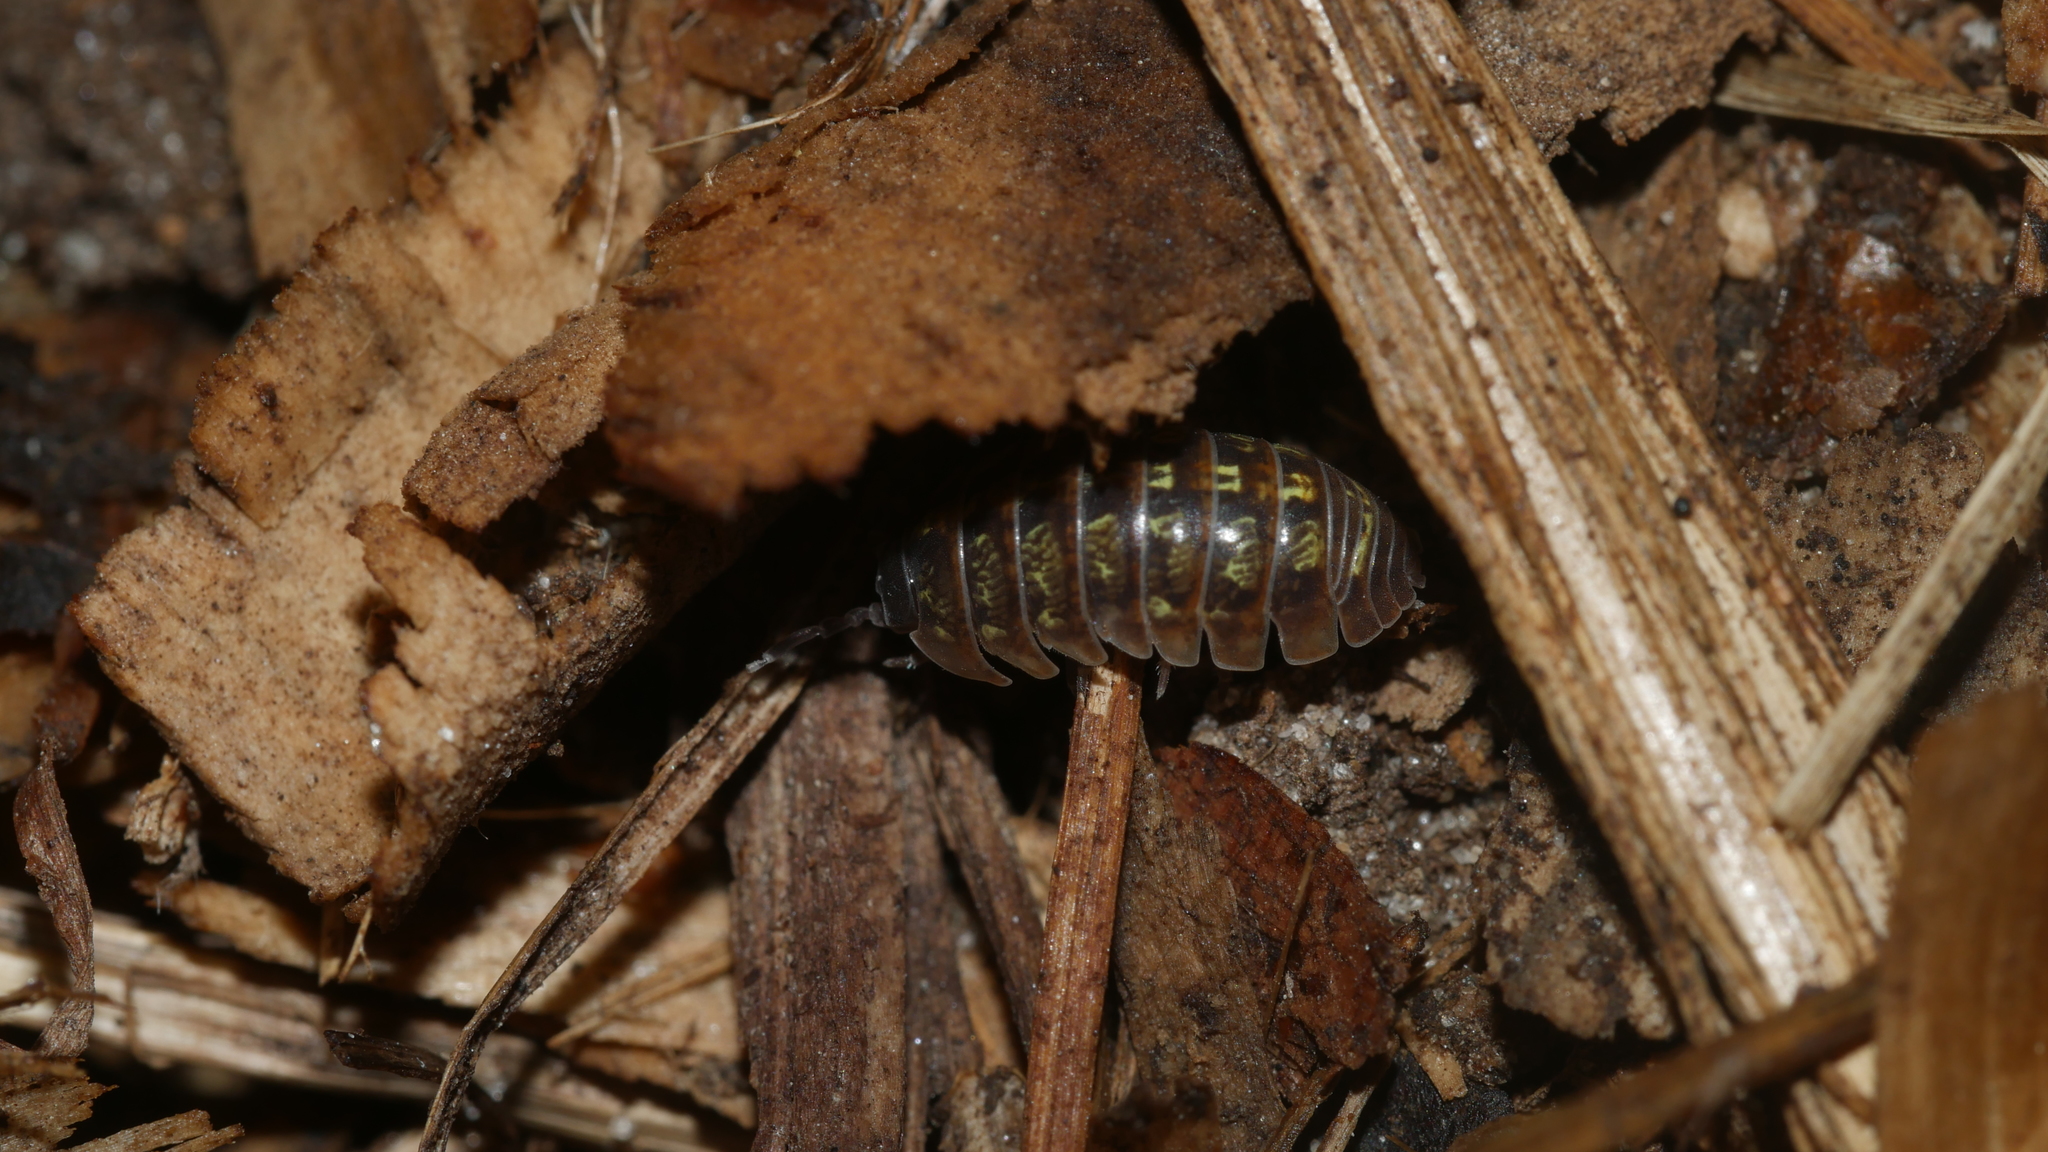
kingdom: Animalia
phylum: Arthropoda
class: Malacostraca
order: Isopoda
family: Armadillidiidae
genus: Armadillidium
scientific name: Armadillidium vulgare
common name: Common pill woodlouse
